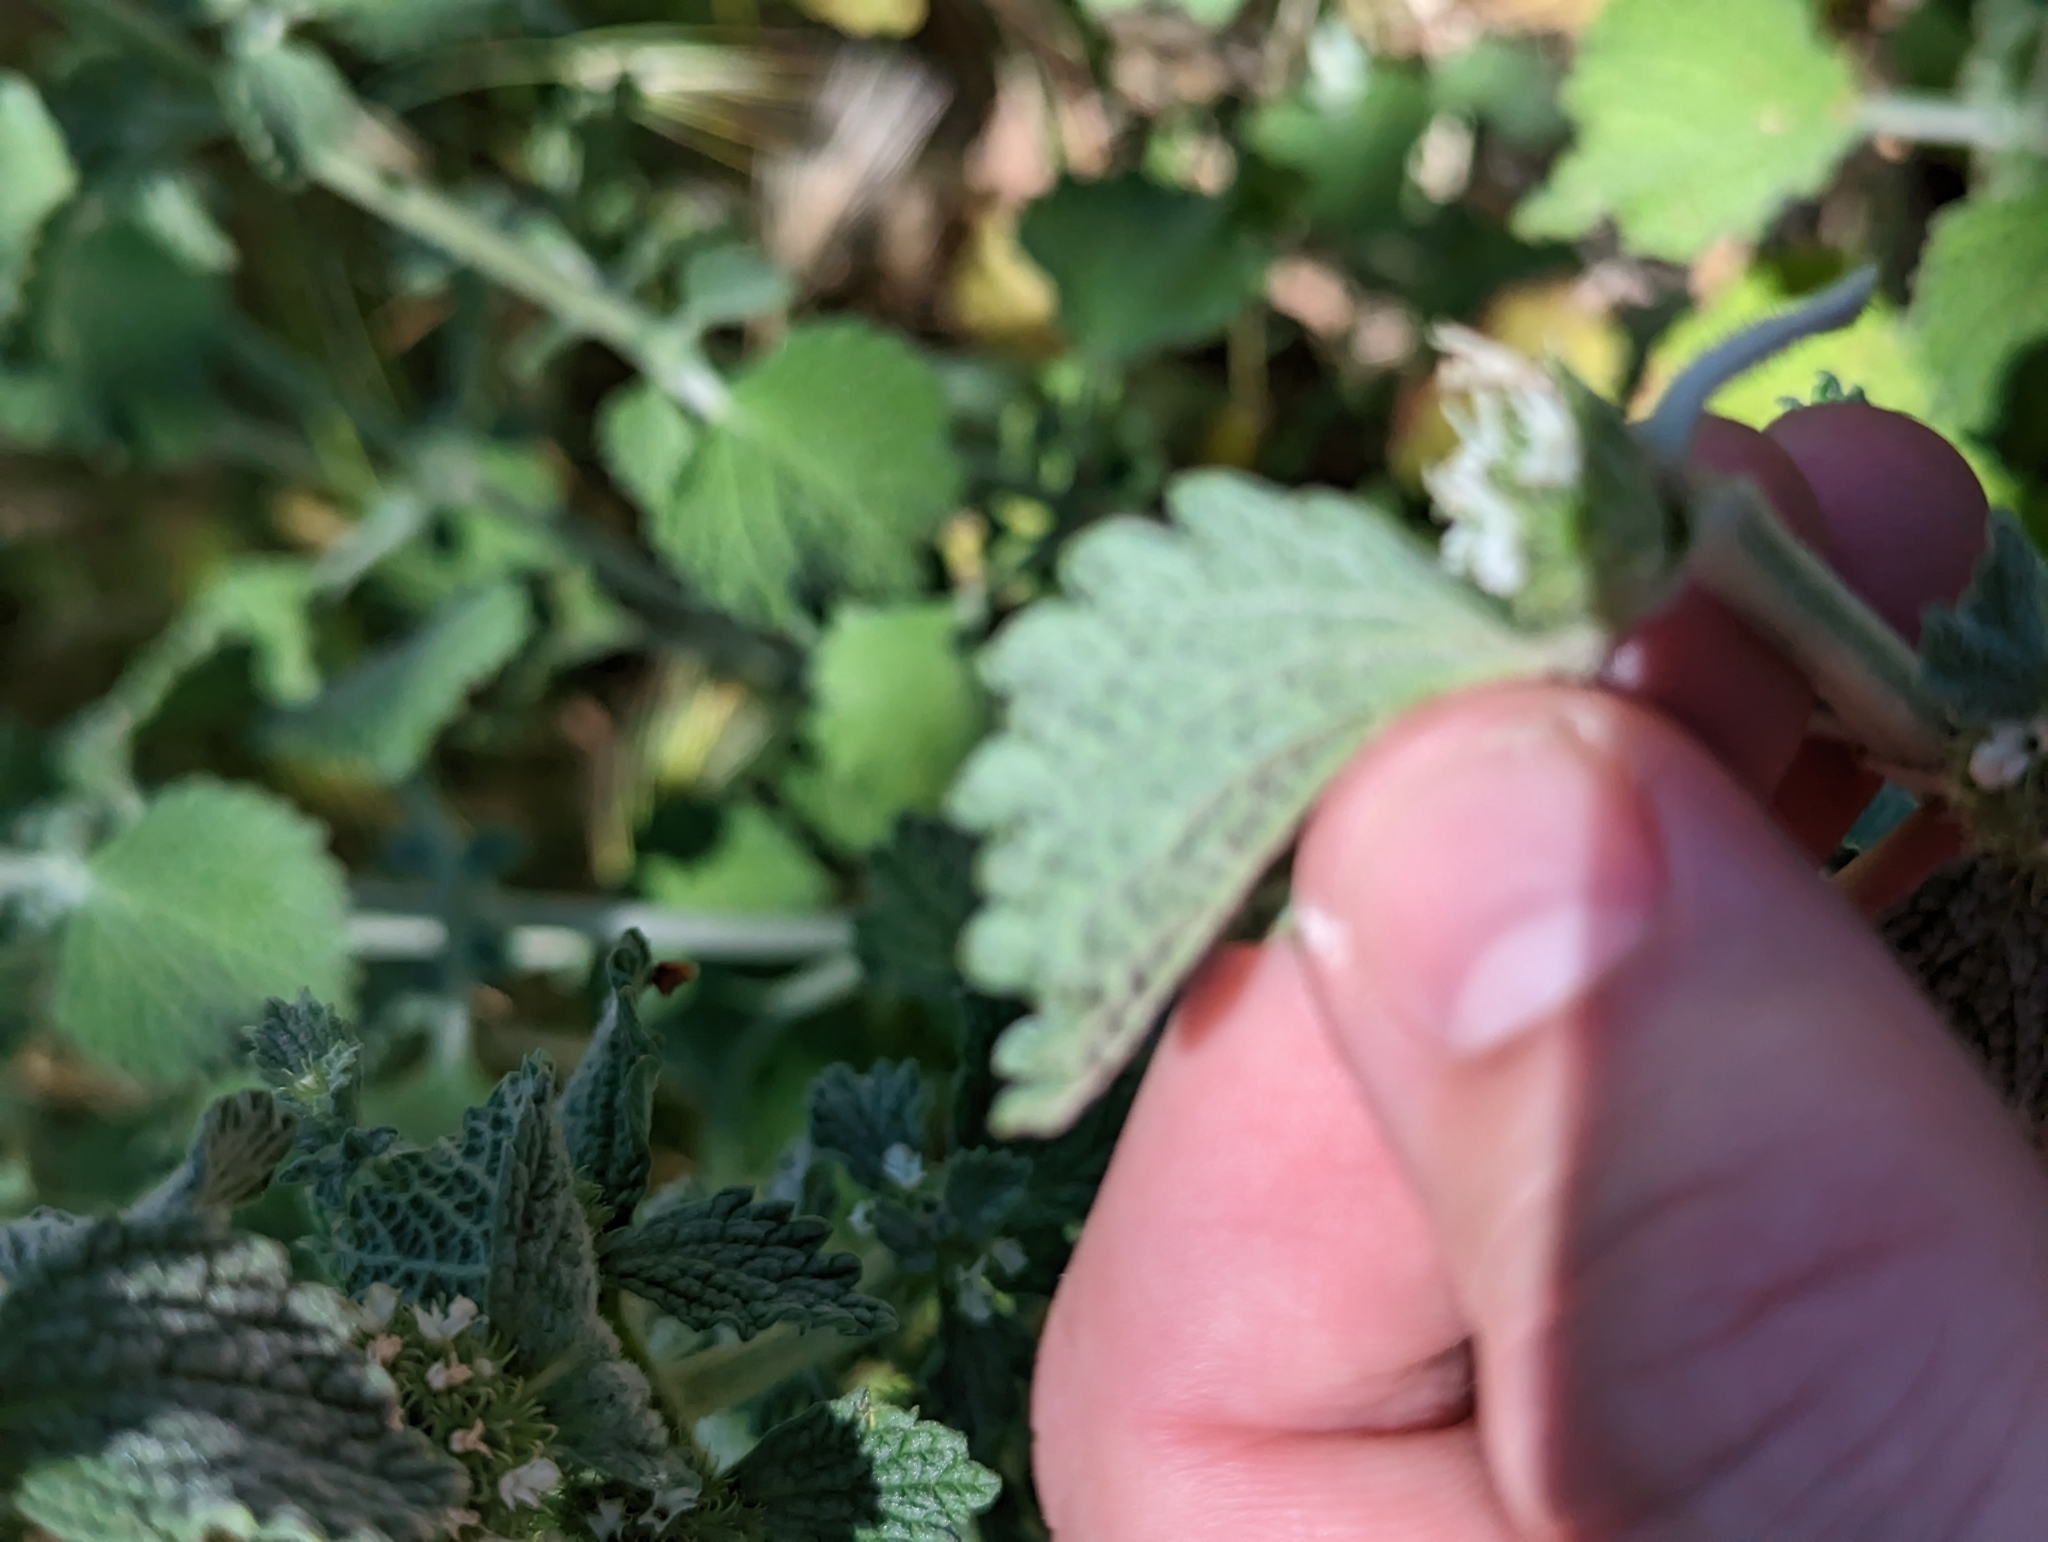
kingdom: Plantae
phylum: Tracheophyta
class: Magnoliopsida
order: Lamiales
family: Lamiaceae
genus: Marrubium
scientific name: Marrubium vulgare
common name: Horehound
